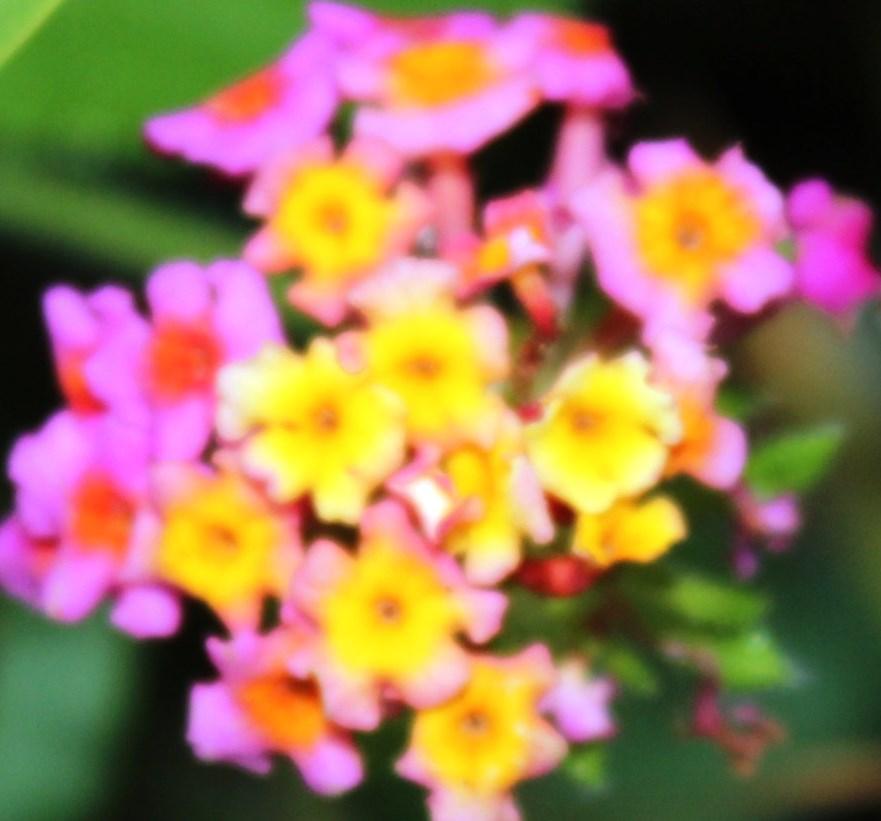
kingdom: Plantae
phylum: Tracheophyta
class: Magnoliopsida
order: Lamiales
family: Verbenaceae
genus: Lantana
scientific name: Lantana camara
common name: Lantana
